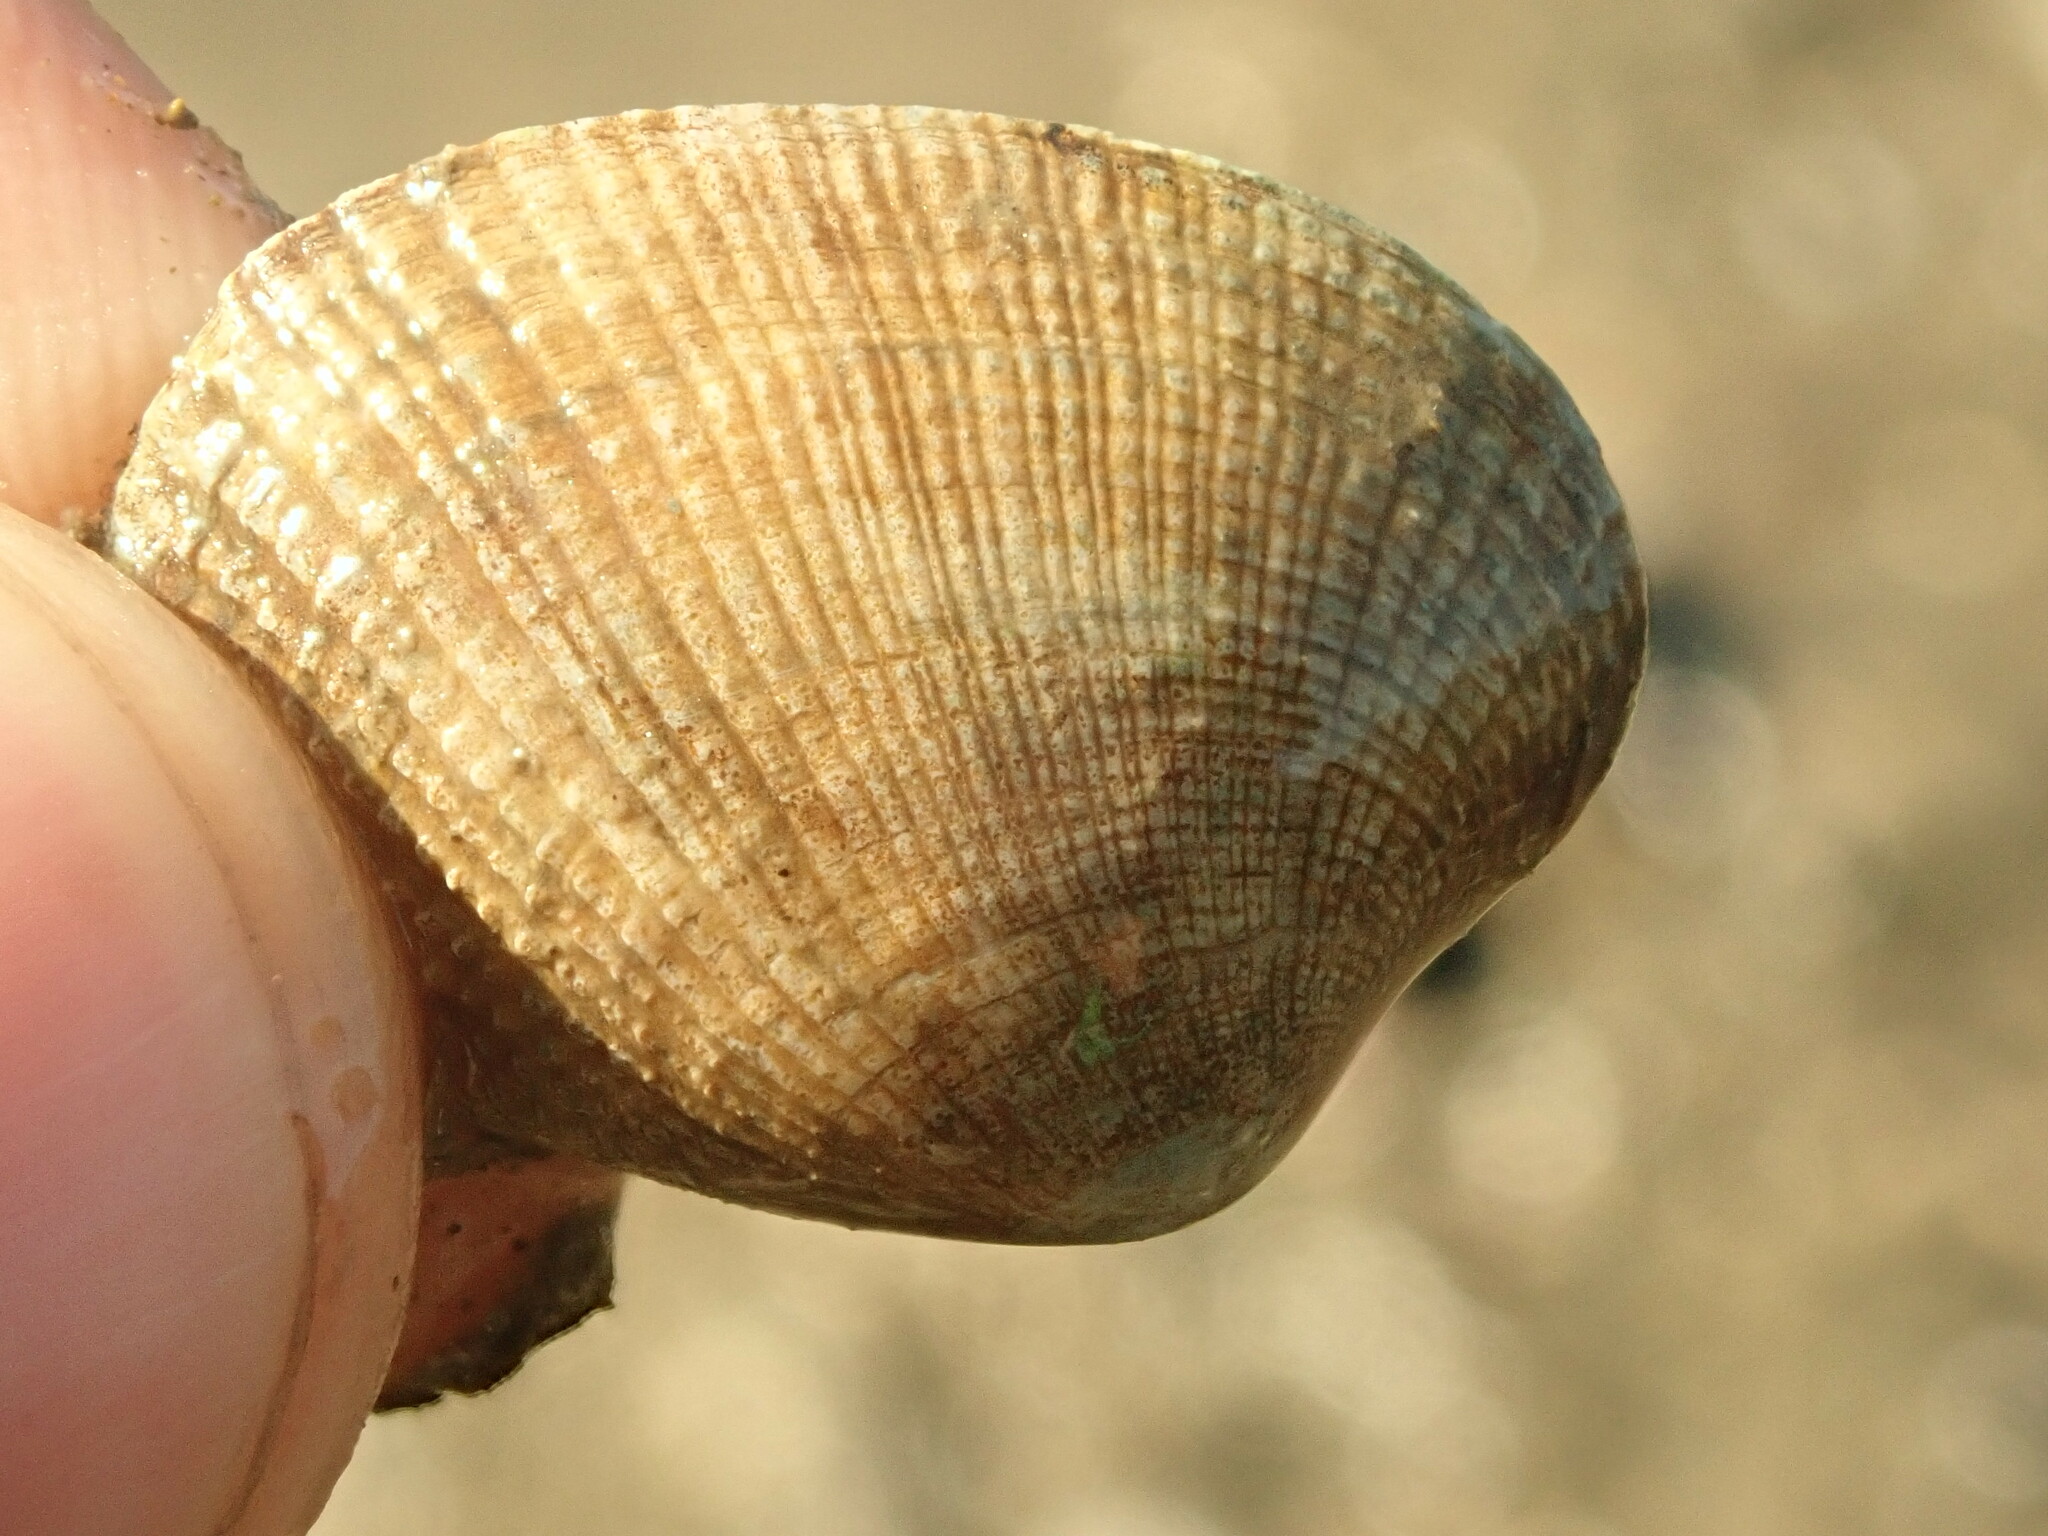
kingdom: Animalia
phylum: Mollusca
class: Bivalvia
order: Venerida
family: Veneridae
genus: Ruditapes
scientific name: Ruditapes philippinarum
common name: Manila clam
